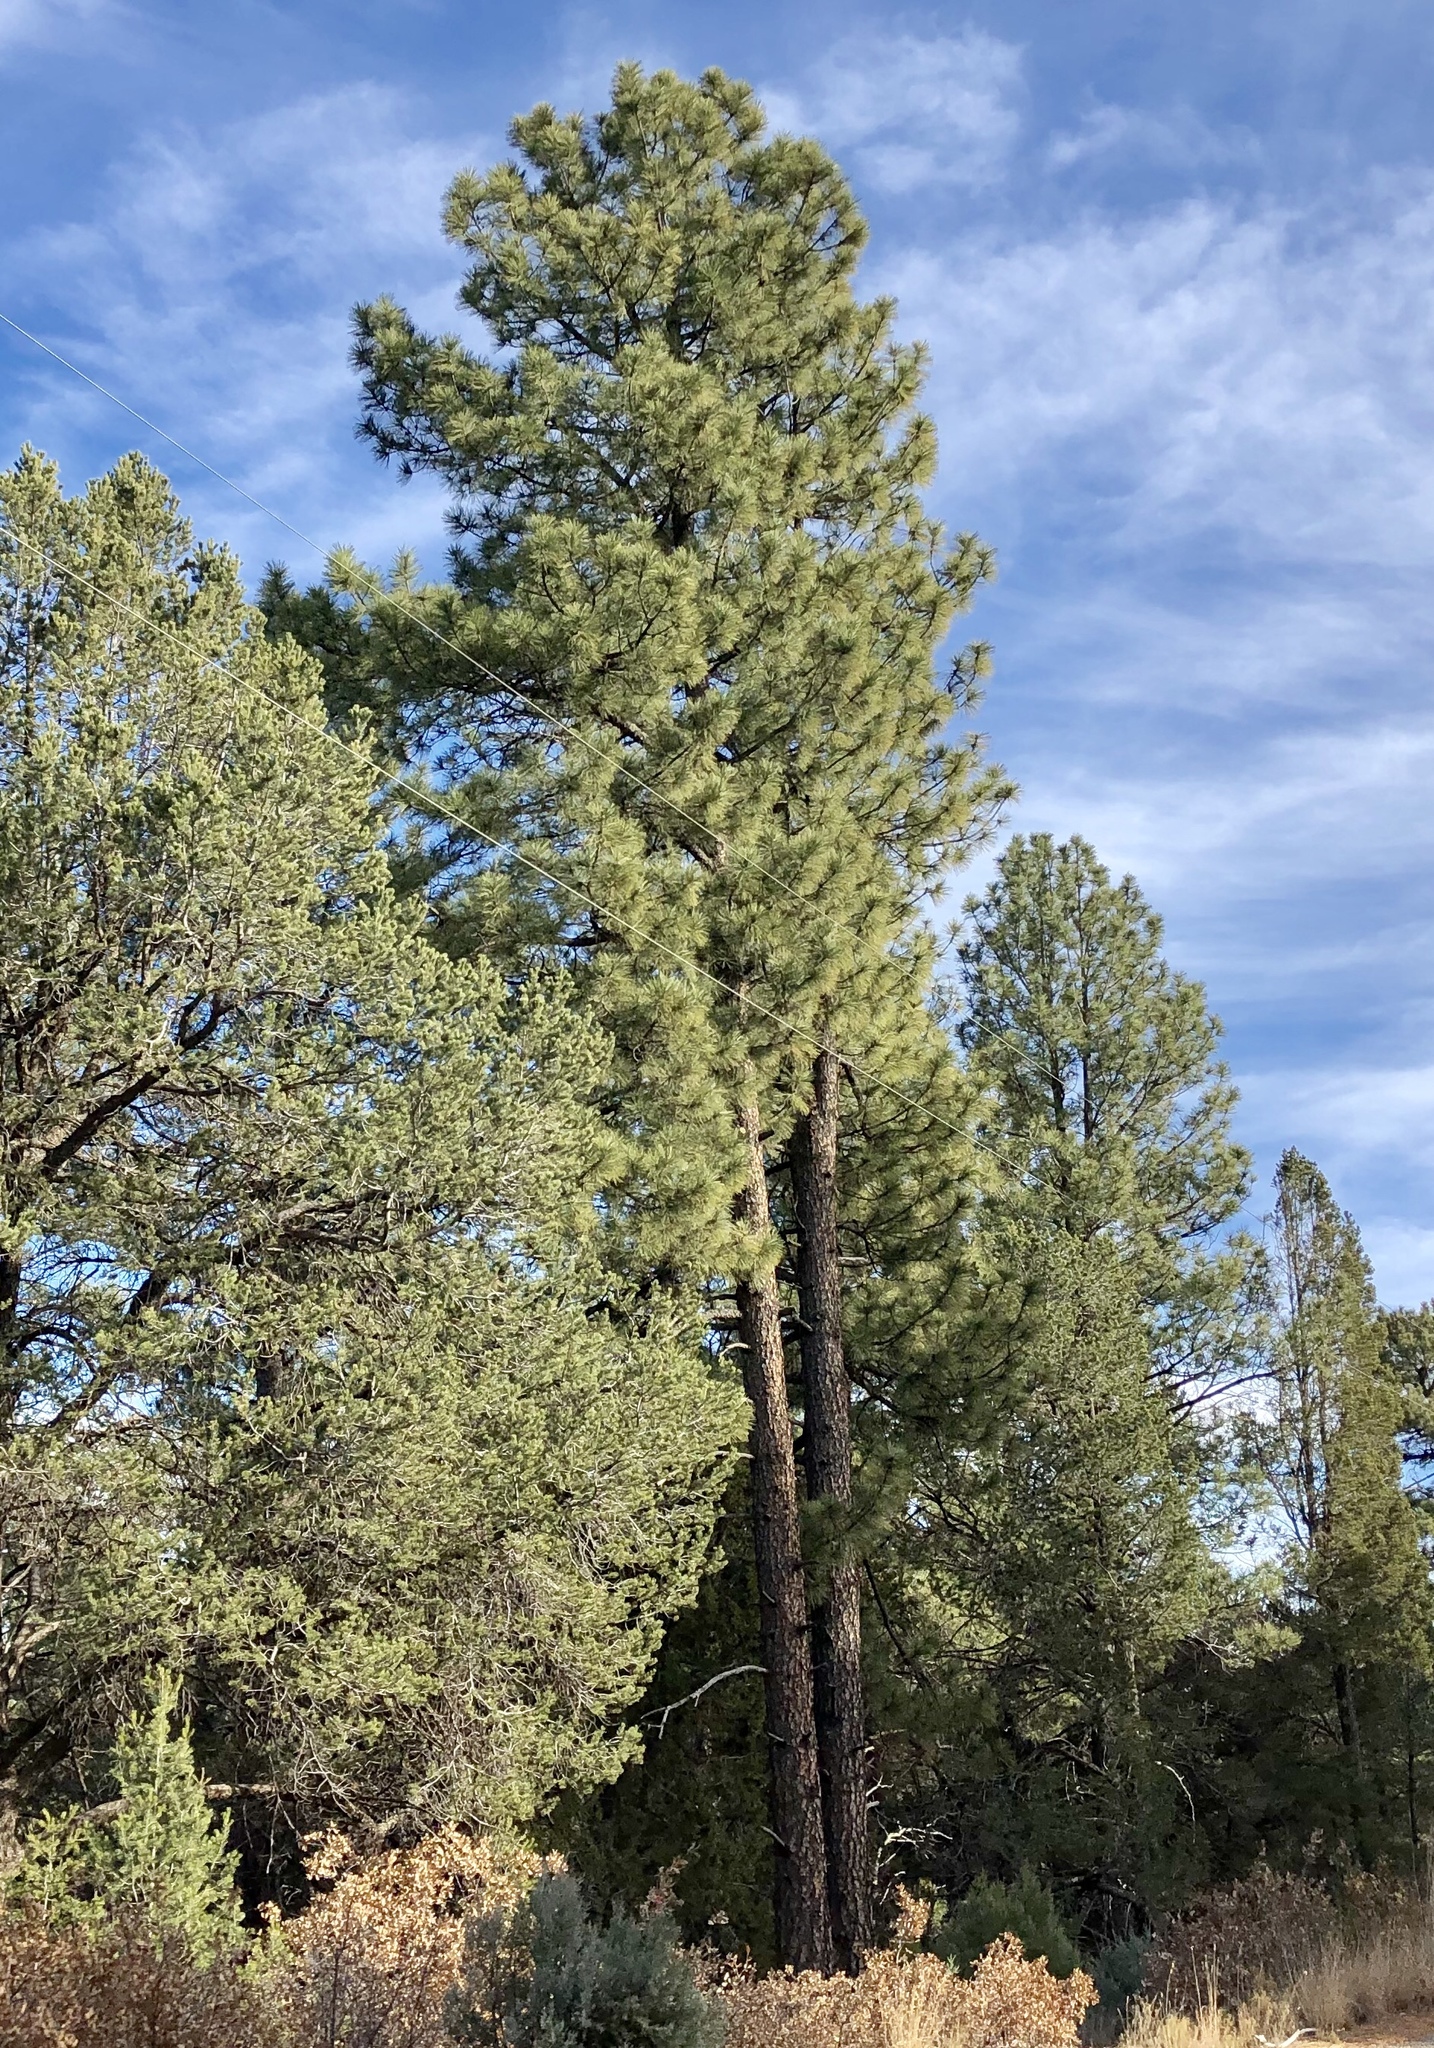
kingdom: Plantae
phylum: Tracheophyta
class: Pinopsida
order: Pinales
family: Pinaceae
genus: Pinus
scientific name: Pinus ponderosa
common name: Western yellow-pine
